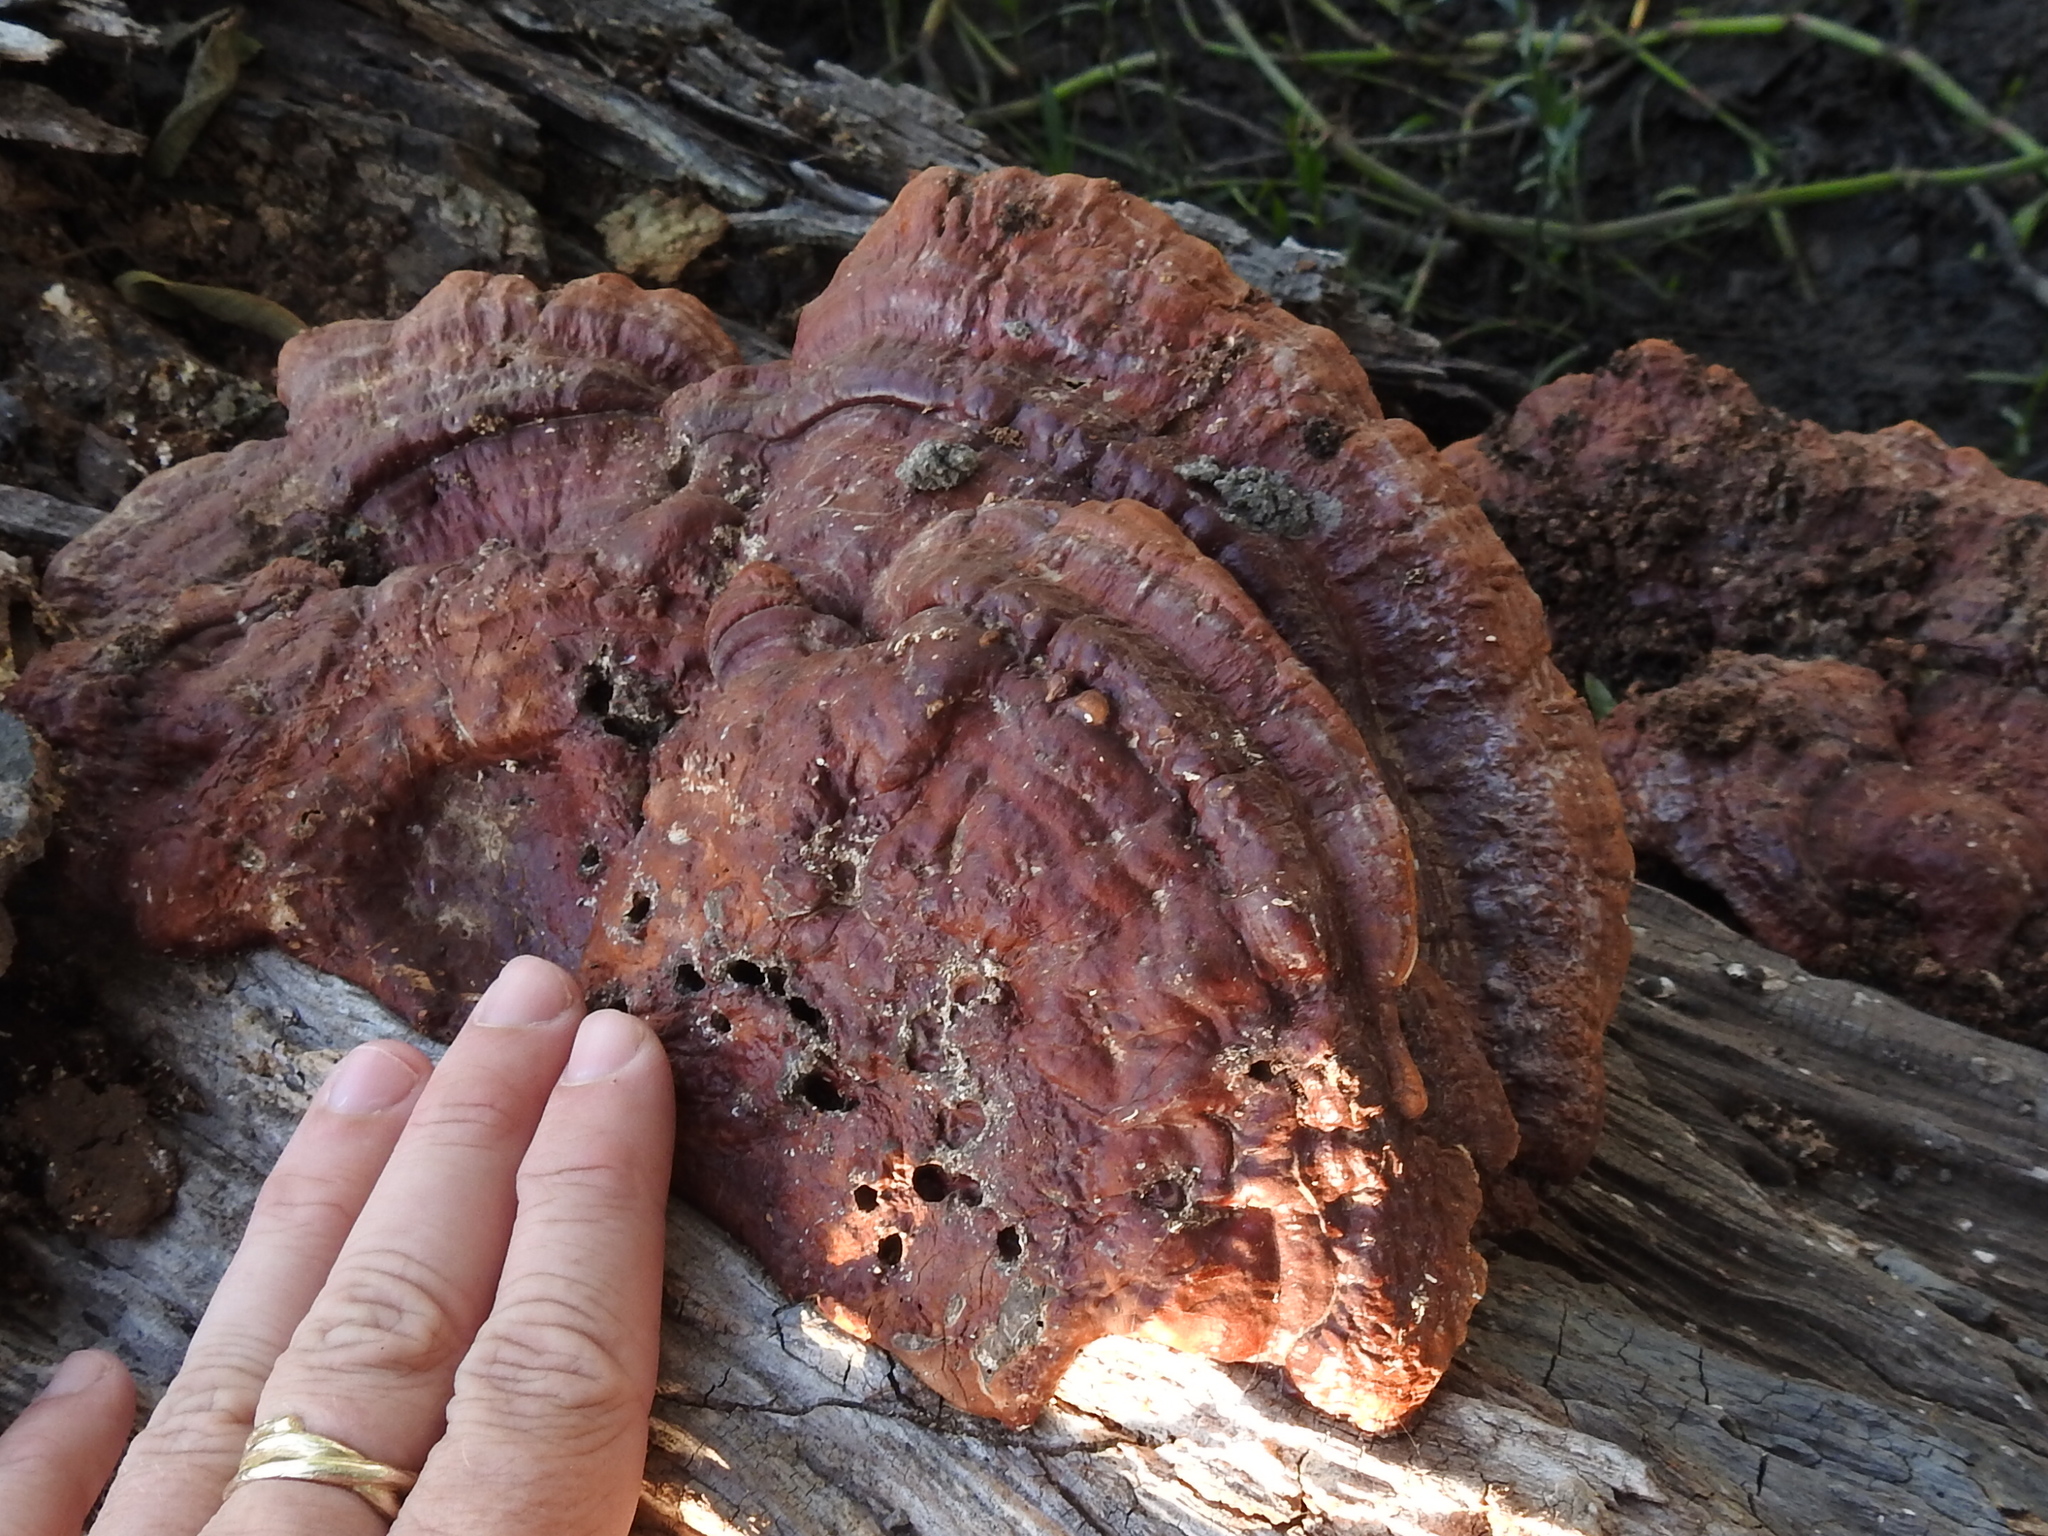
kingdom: Fungi
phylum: Basidiomycota
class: Agaricomycetes
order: Polyporales
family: Polyporaceae
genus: Ganoderma
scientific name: Ganoderma resinaceum
